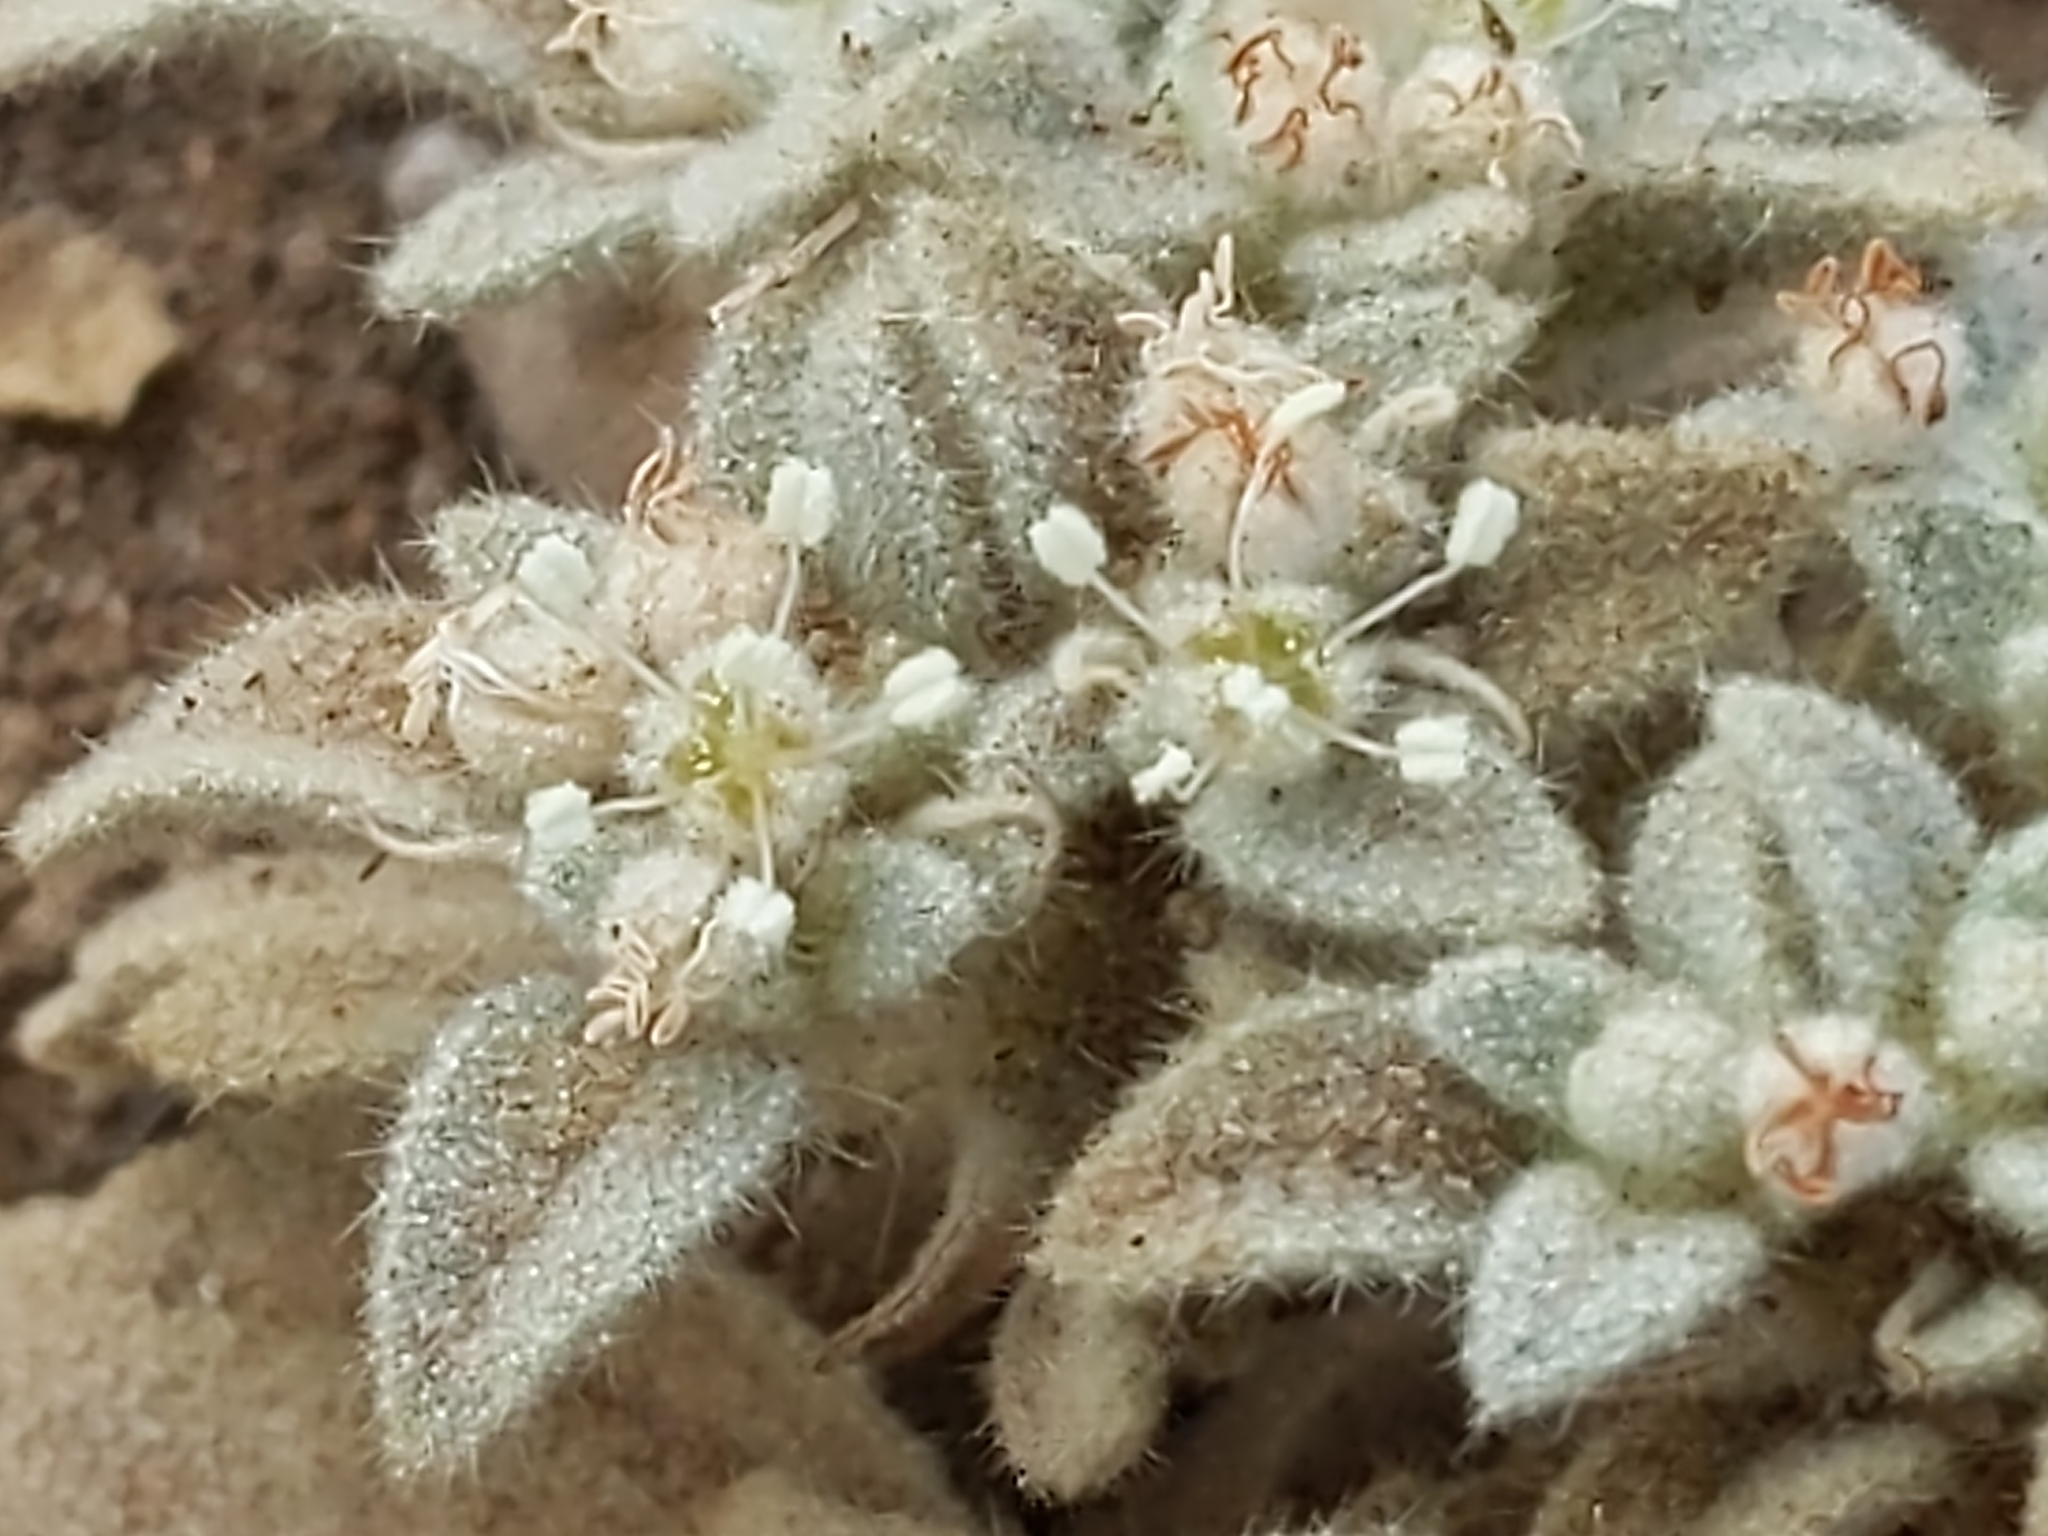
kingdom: Plantae
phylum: Tracheophyta
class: Magnoliopsida
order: Malpighiales
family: Euphorbiaceae
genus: Croton
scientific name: Croton setiger
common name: Dove weed
